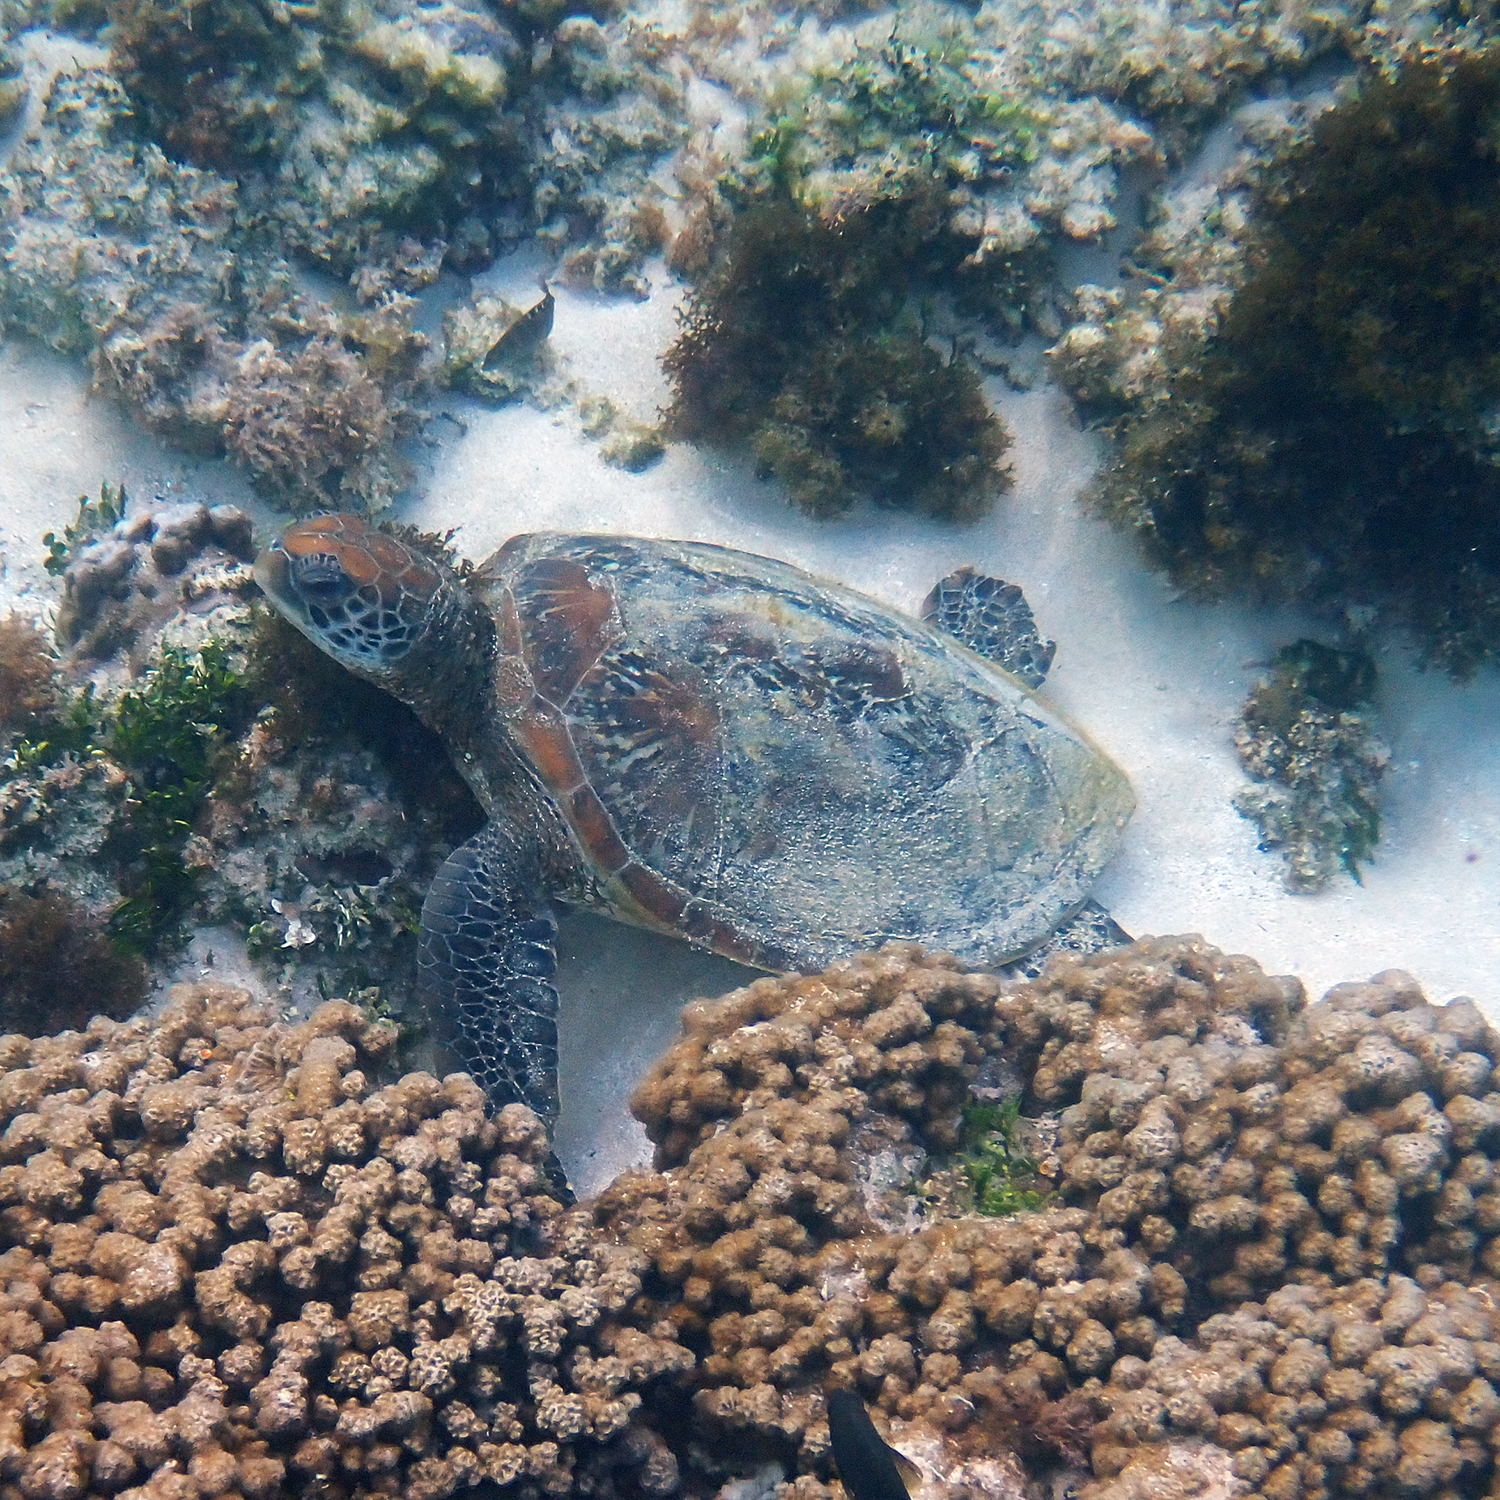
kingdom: Animalia
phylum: Chordata
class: Testudines
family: Cheloniidae
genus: Chelonia
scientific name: Chelonia mydas
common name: Green turtle
